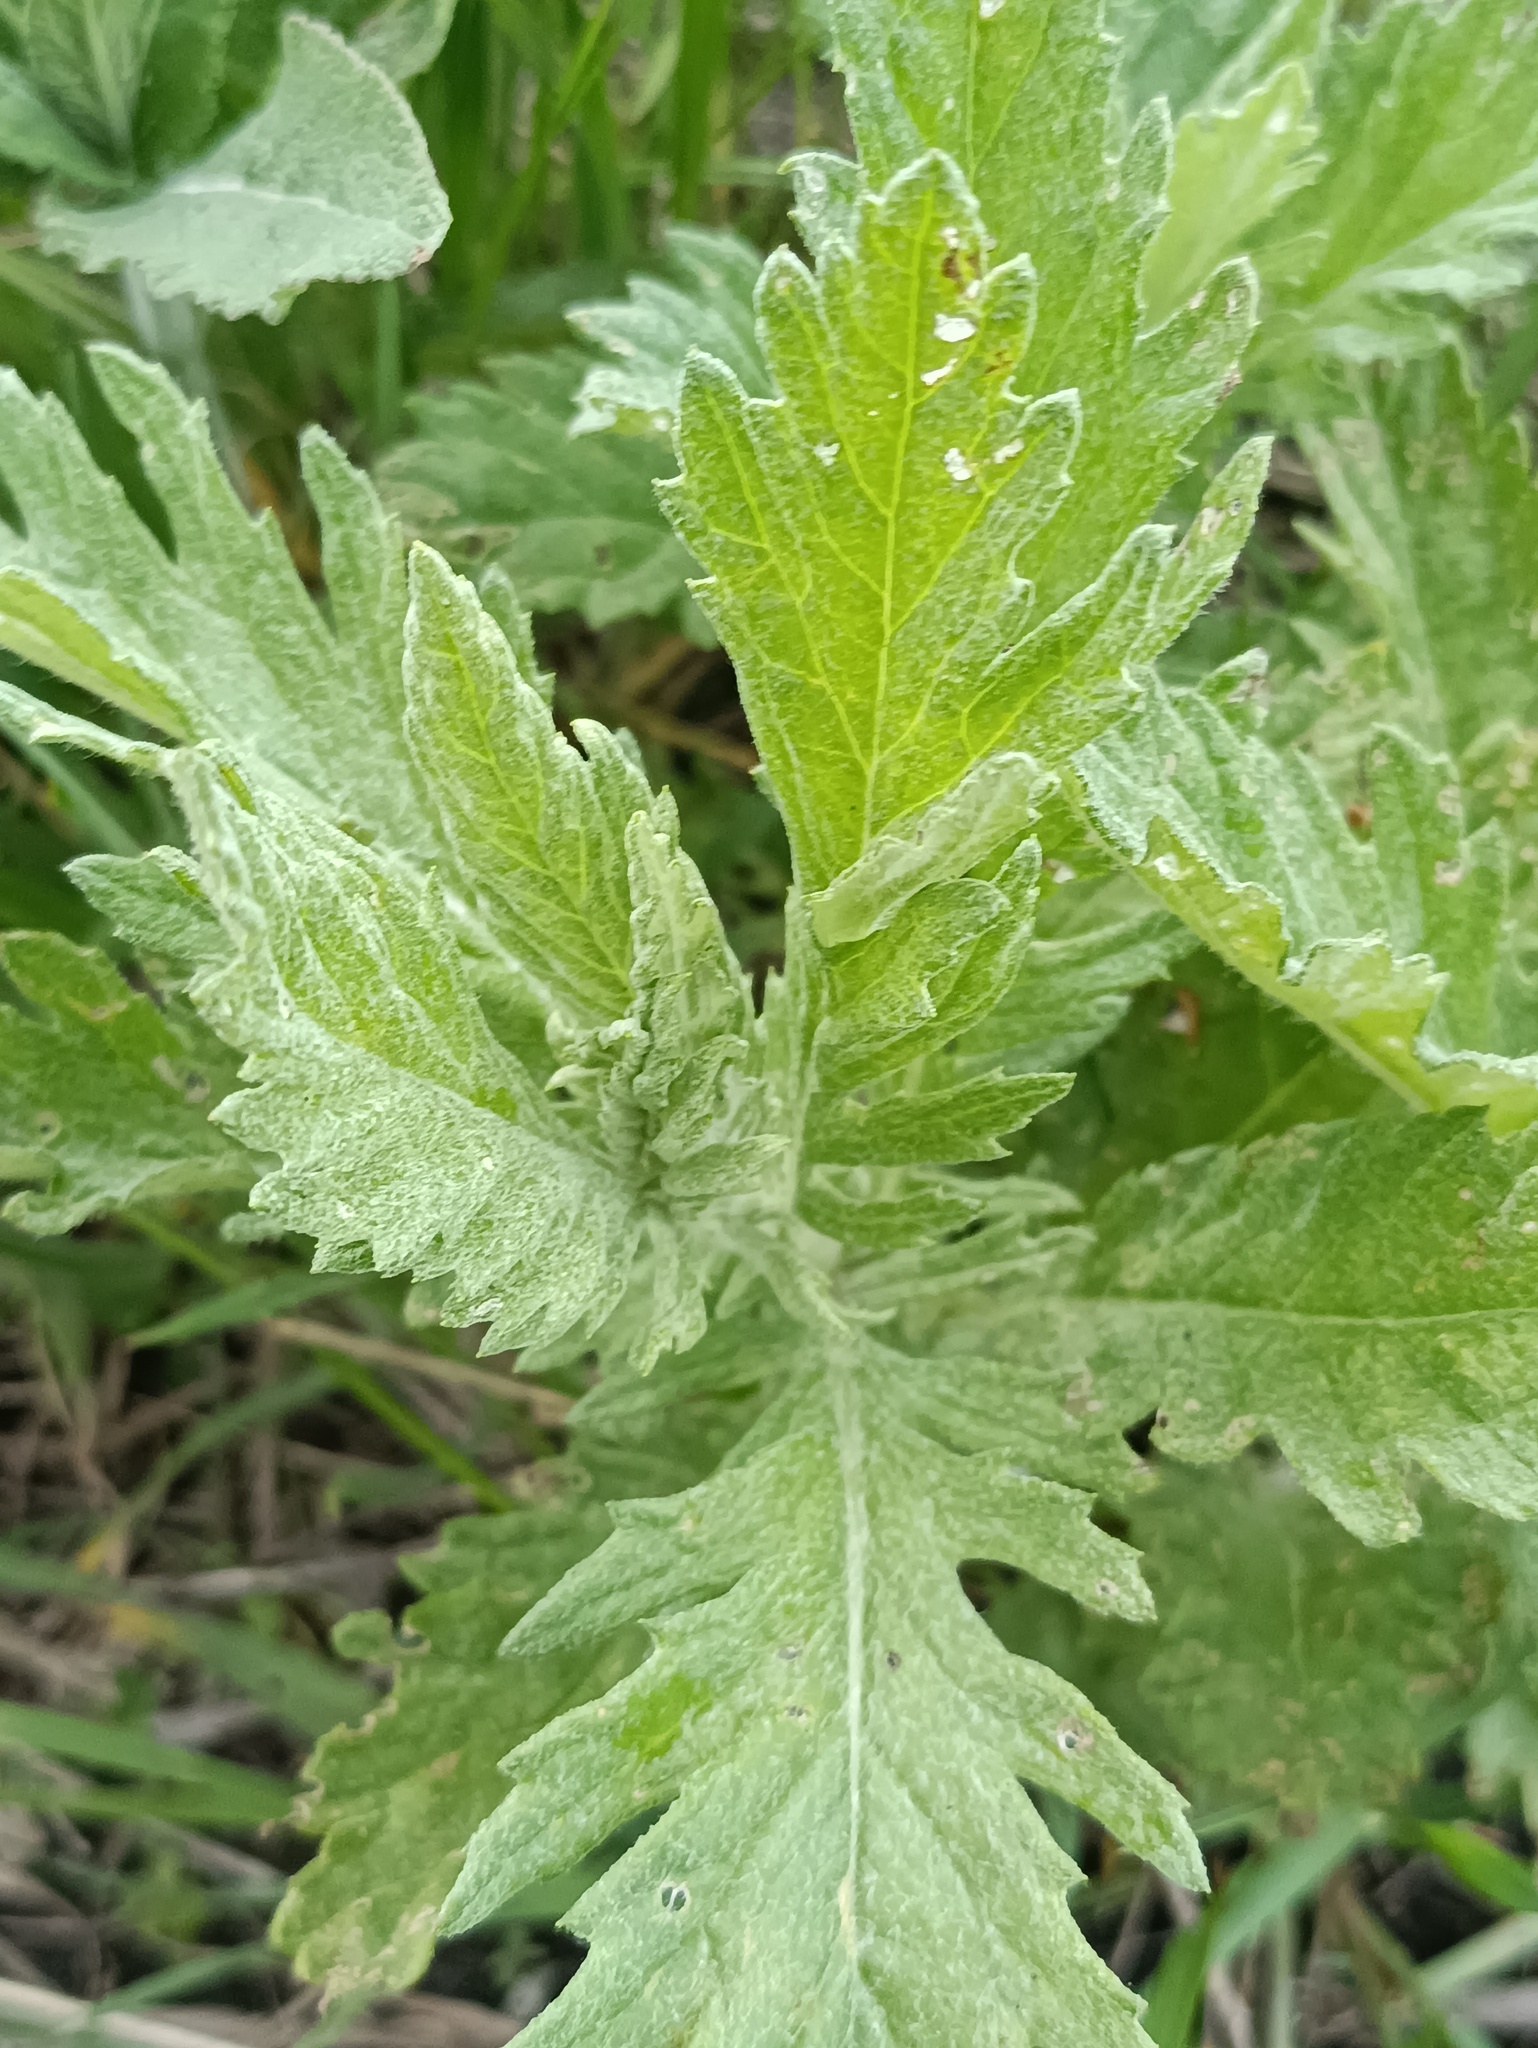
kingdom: Plantae
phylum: Tracheophyta
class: Magnoliopsida
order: Asterales
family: Asteraceae
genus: Jacobaea
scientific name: Jacobaea erucifolia
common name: Hoary ragwort
